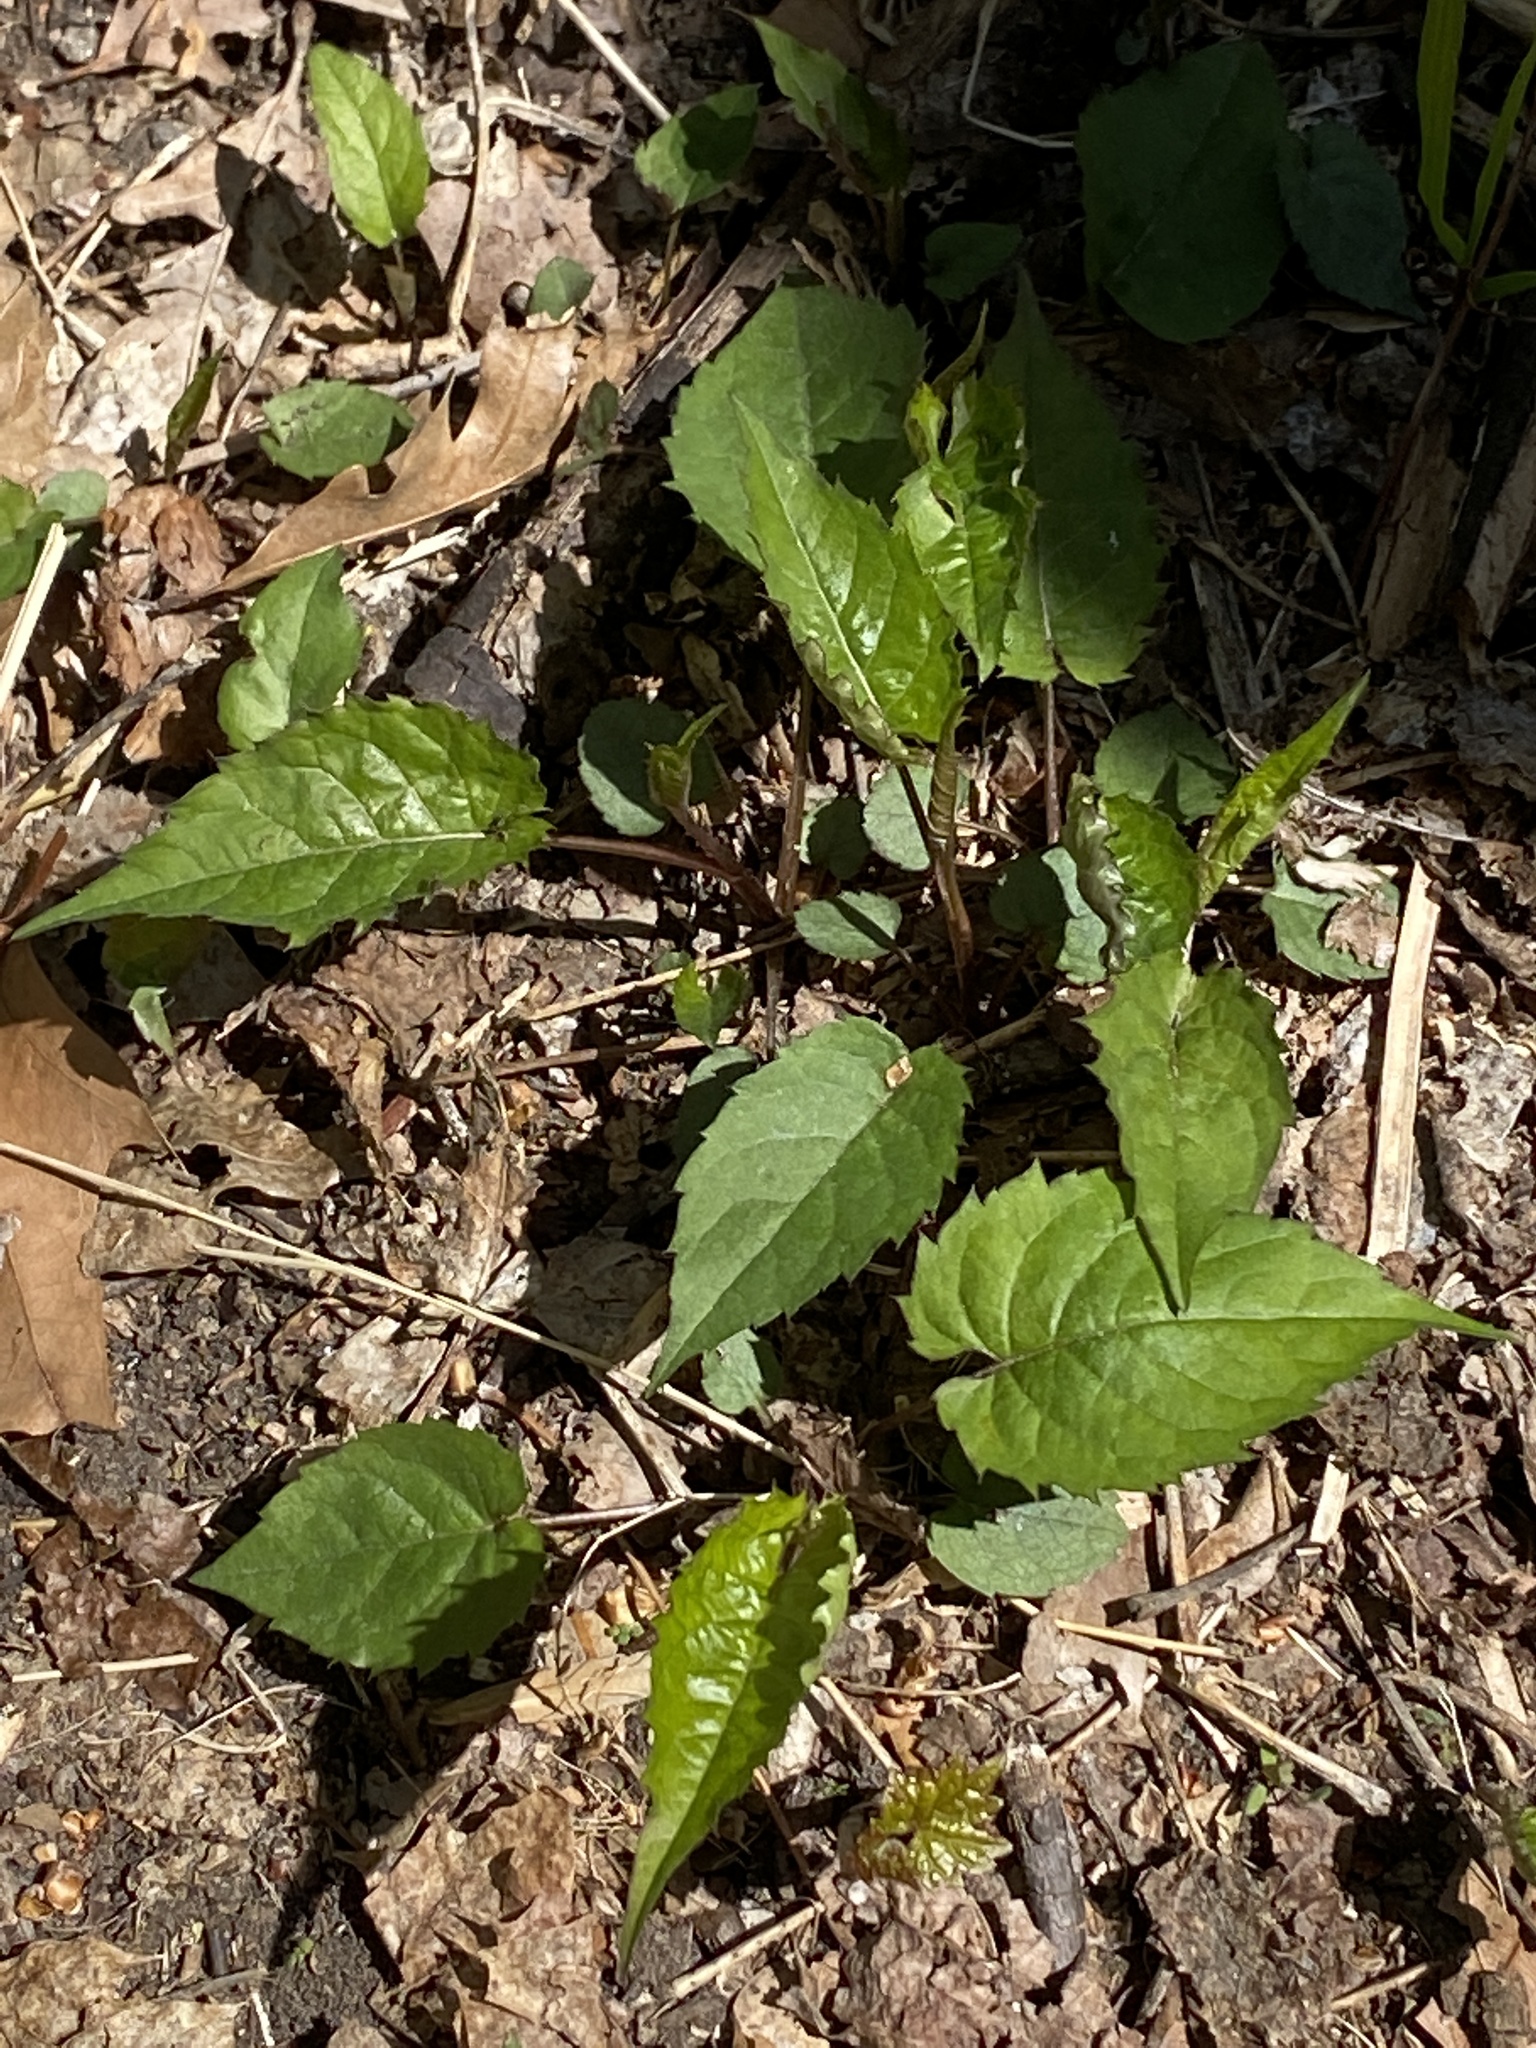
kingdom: Plantae
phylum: Tracheophyta
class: Magnoliopsida
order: Asterales
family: Asteraceae
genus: Eurybia
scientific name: Eurybia divaricata
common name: White wood aster
